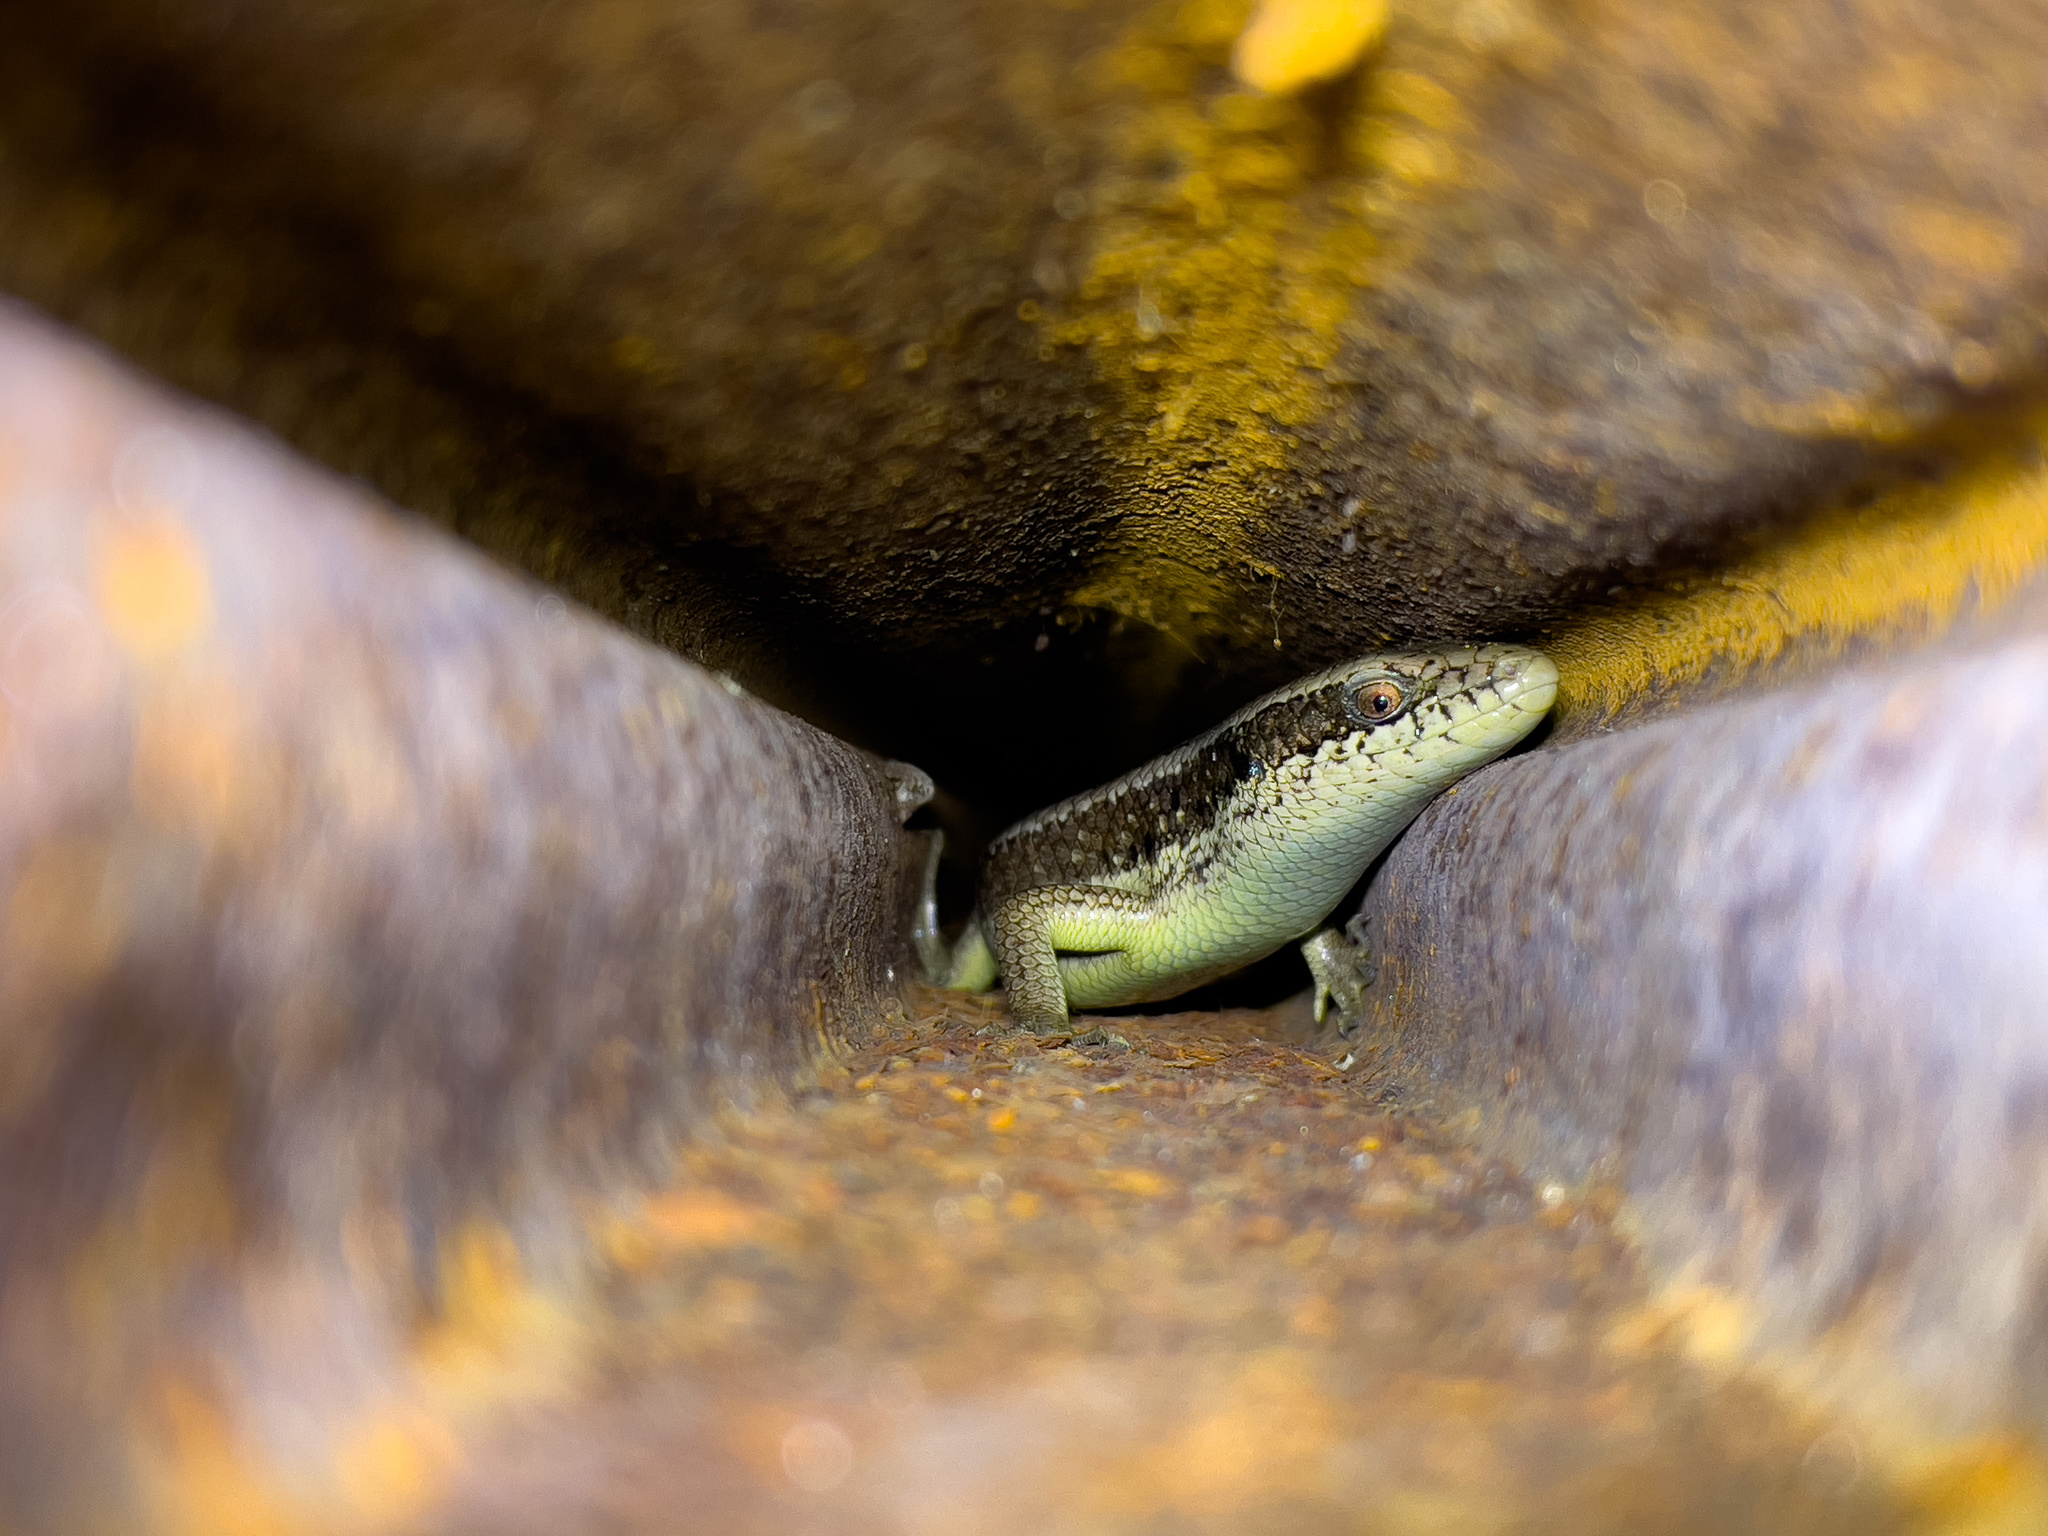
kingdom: Animalia
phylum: Chordata
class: Squamata
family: Scincidae
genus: Eutropis
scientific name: Eutropis longicaudata
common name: Long-tailed sun skink
